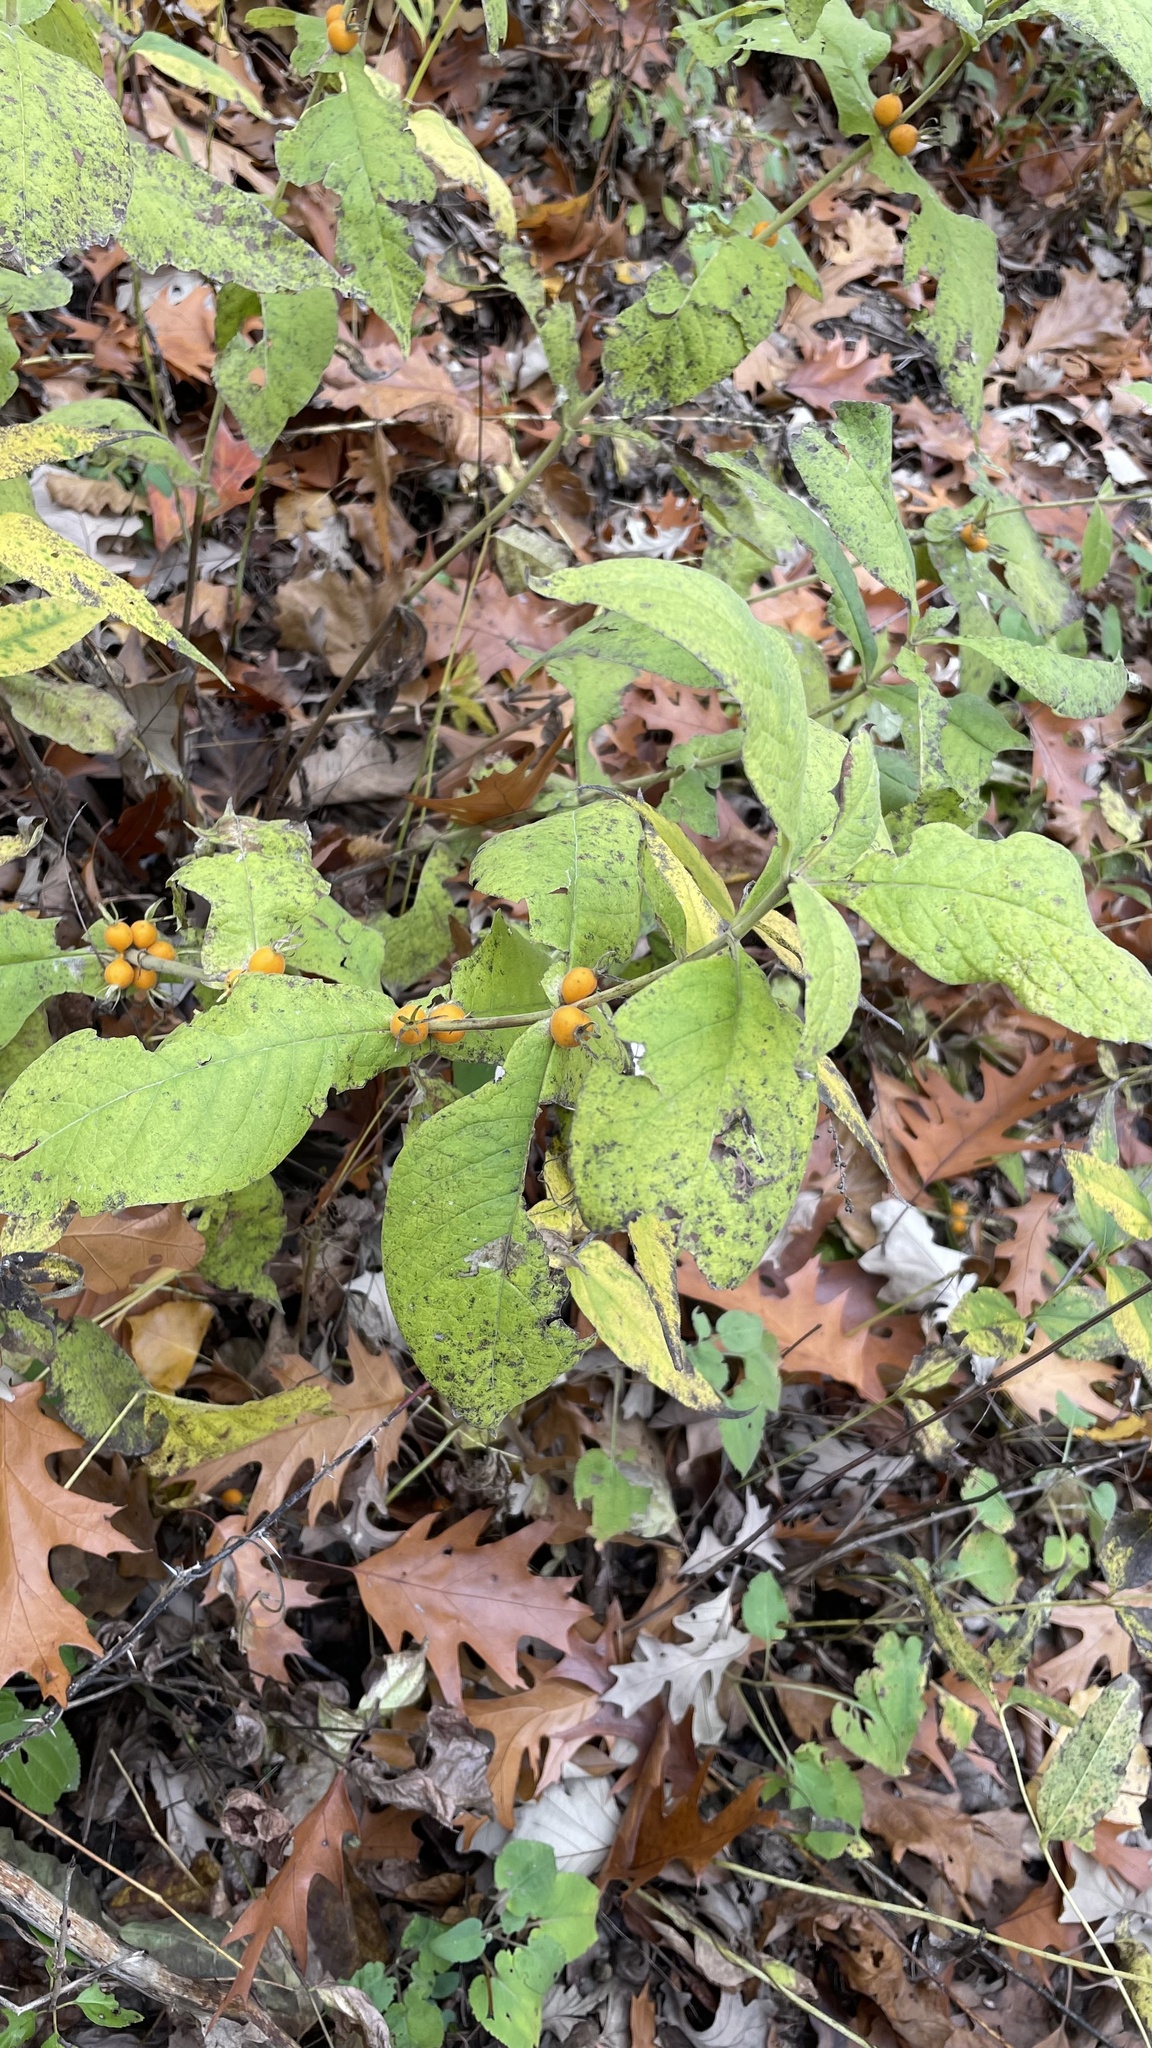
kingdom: Plantae
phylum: Tracheophyta
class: Magnoliopsida
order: Dipsacales
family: Caprifoliaceae
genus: Triosteum
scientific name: Triosteum perfoliatum
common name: Common horse-gentian
